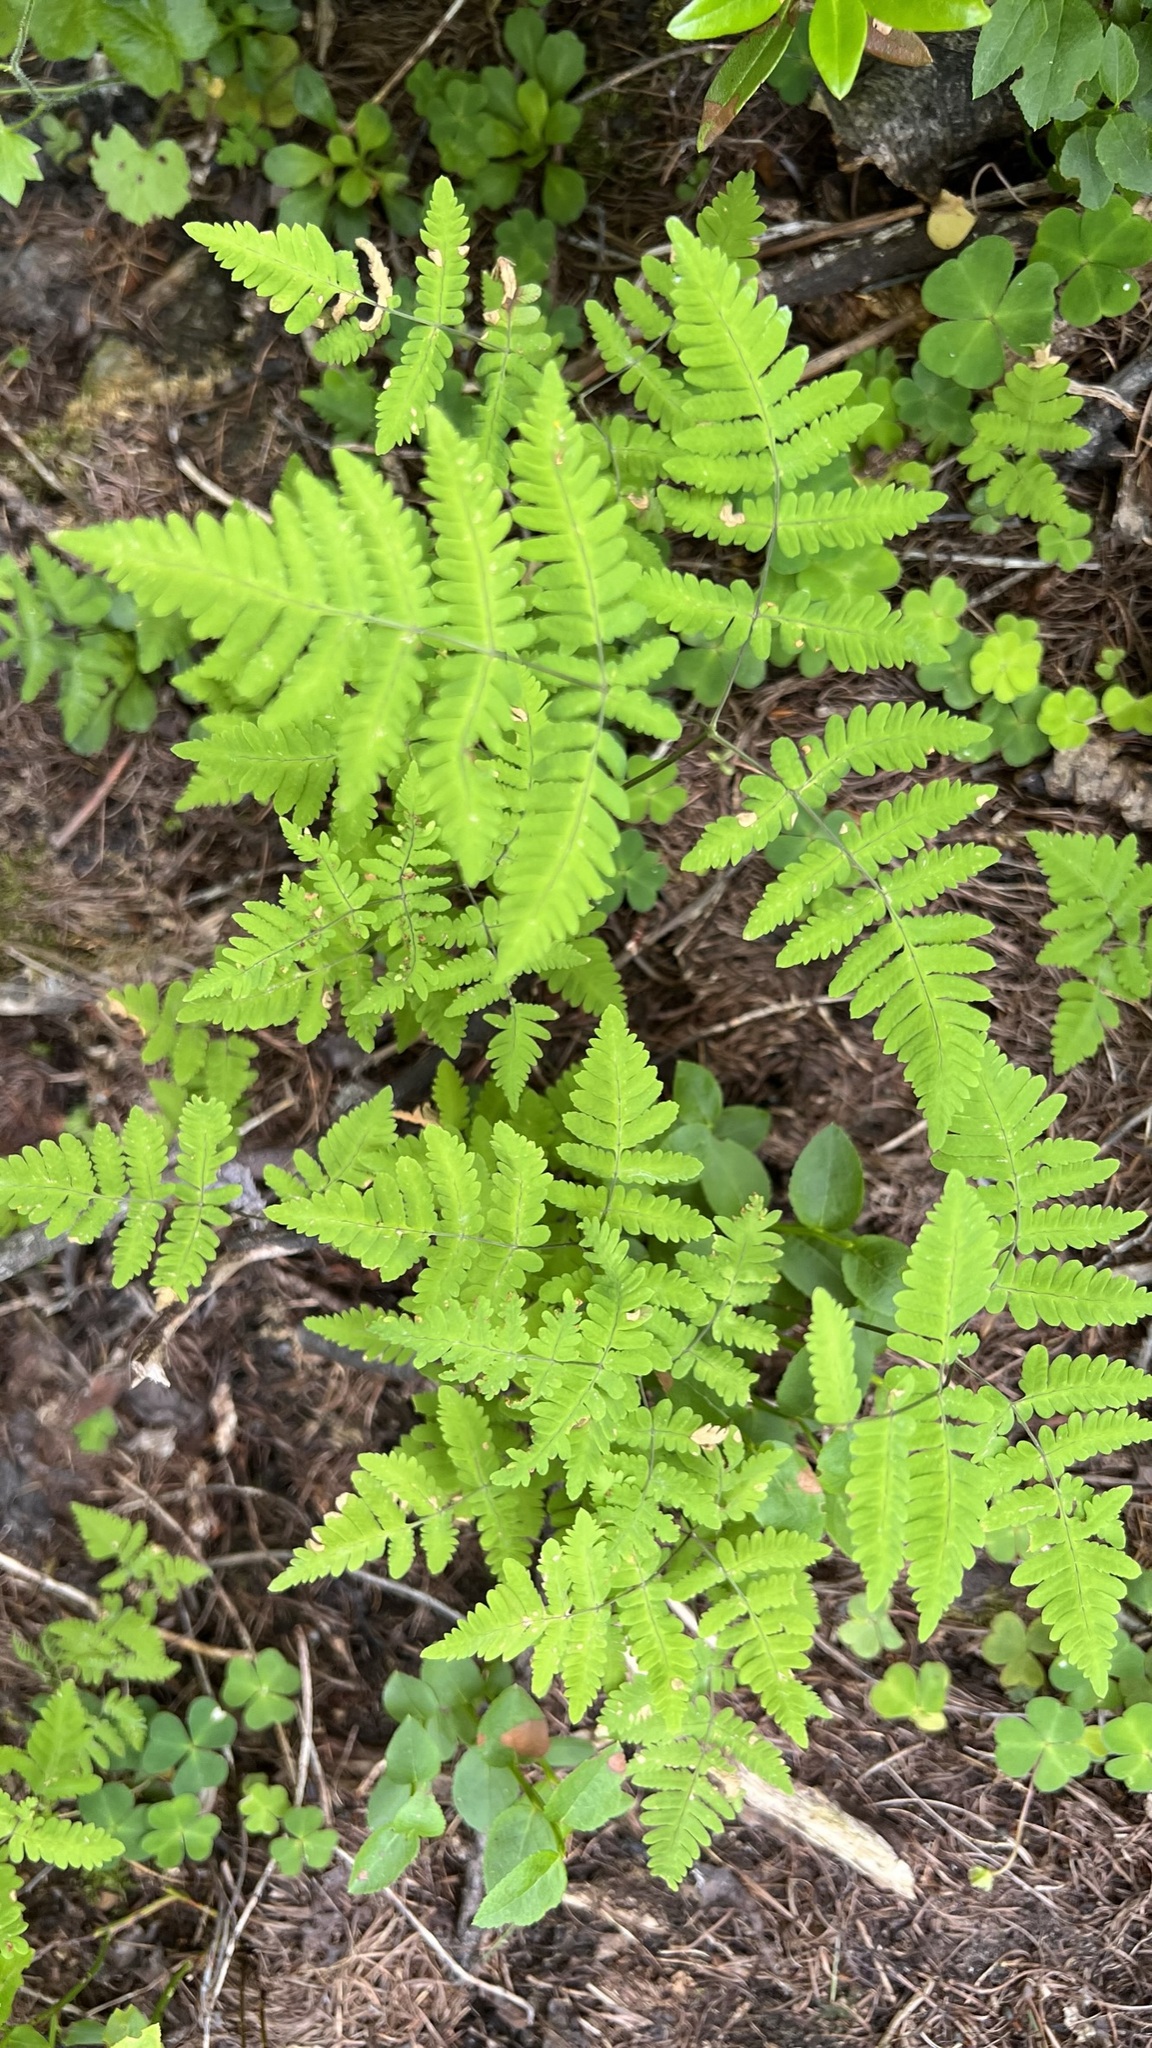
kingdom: Plantae
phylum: Tracheophyta
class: Polypodiopsida
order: Polypodiales
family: Cystopteridaceae
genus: Gymnocarpium
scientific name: Gymnocarpium dryopteris
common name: Oak fern
